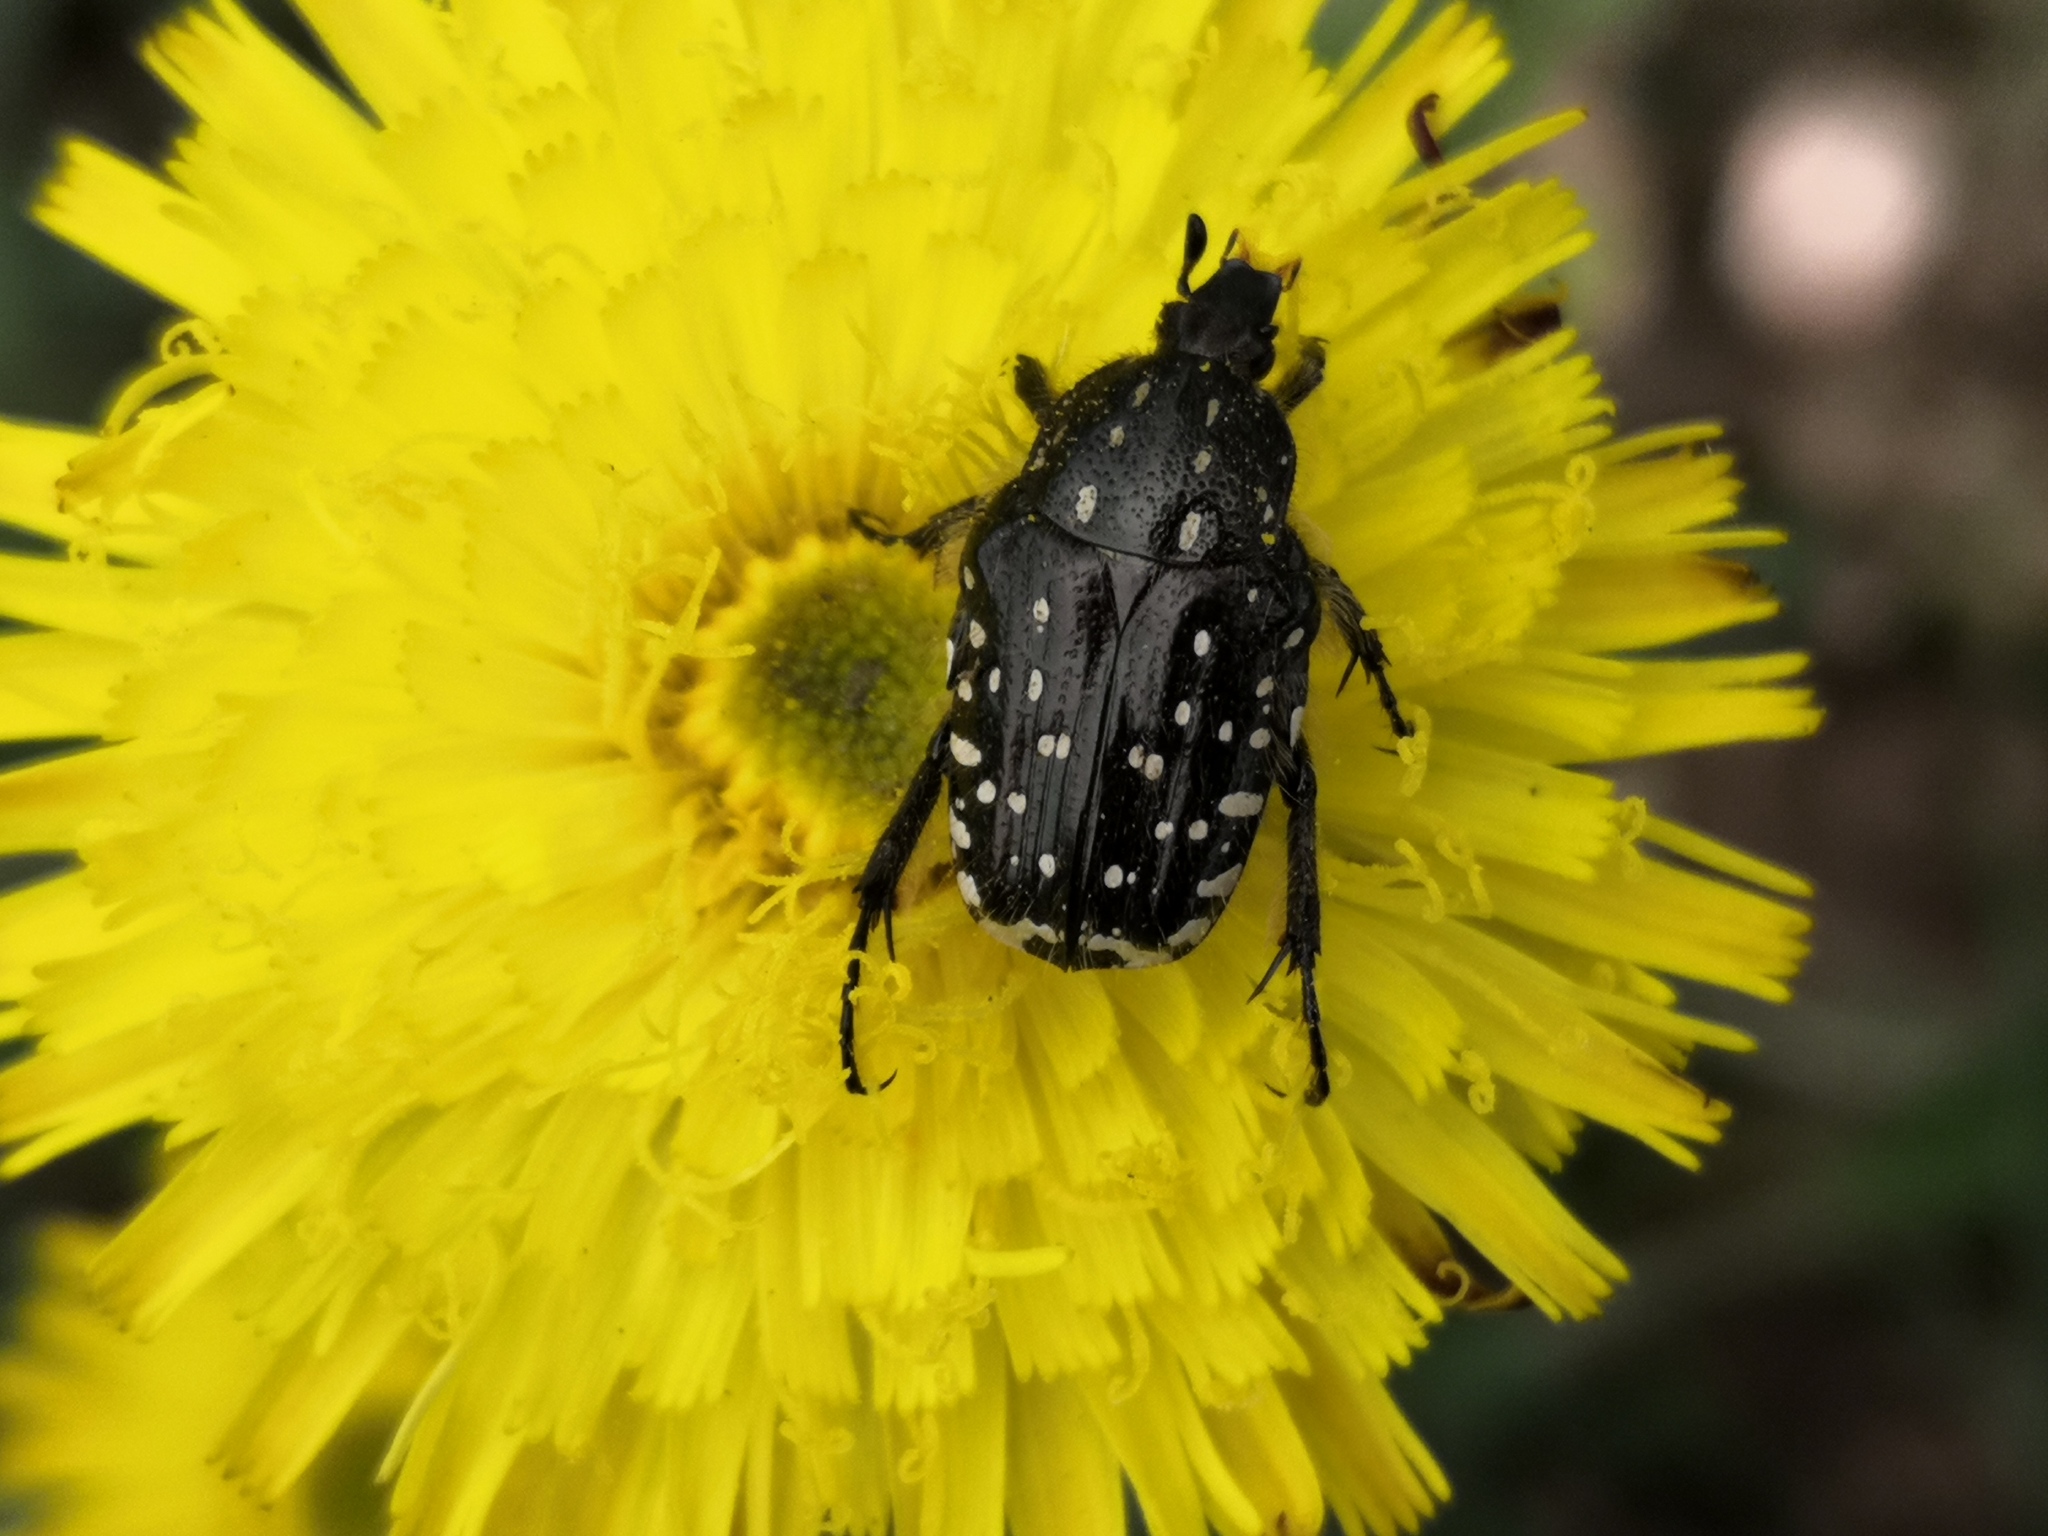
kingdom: Animalia
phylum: Arthropoda
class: Insecta
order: Coleoptera
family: Scarabaeidae
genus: Oxythyrea
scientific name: Oxythyrea funesta
